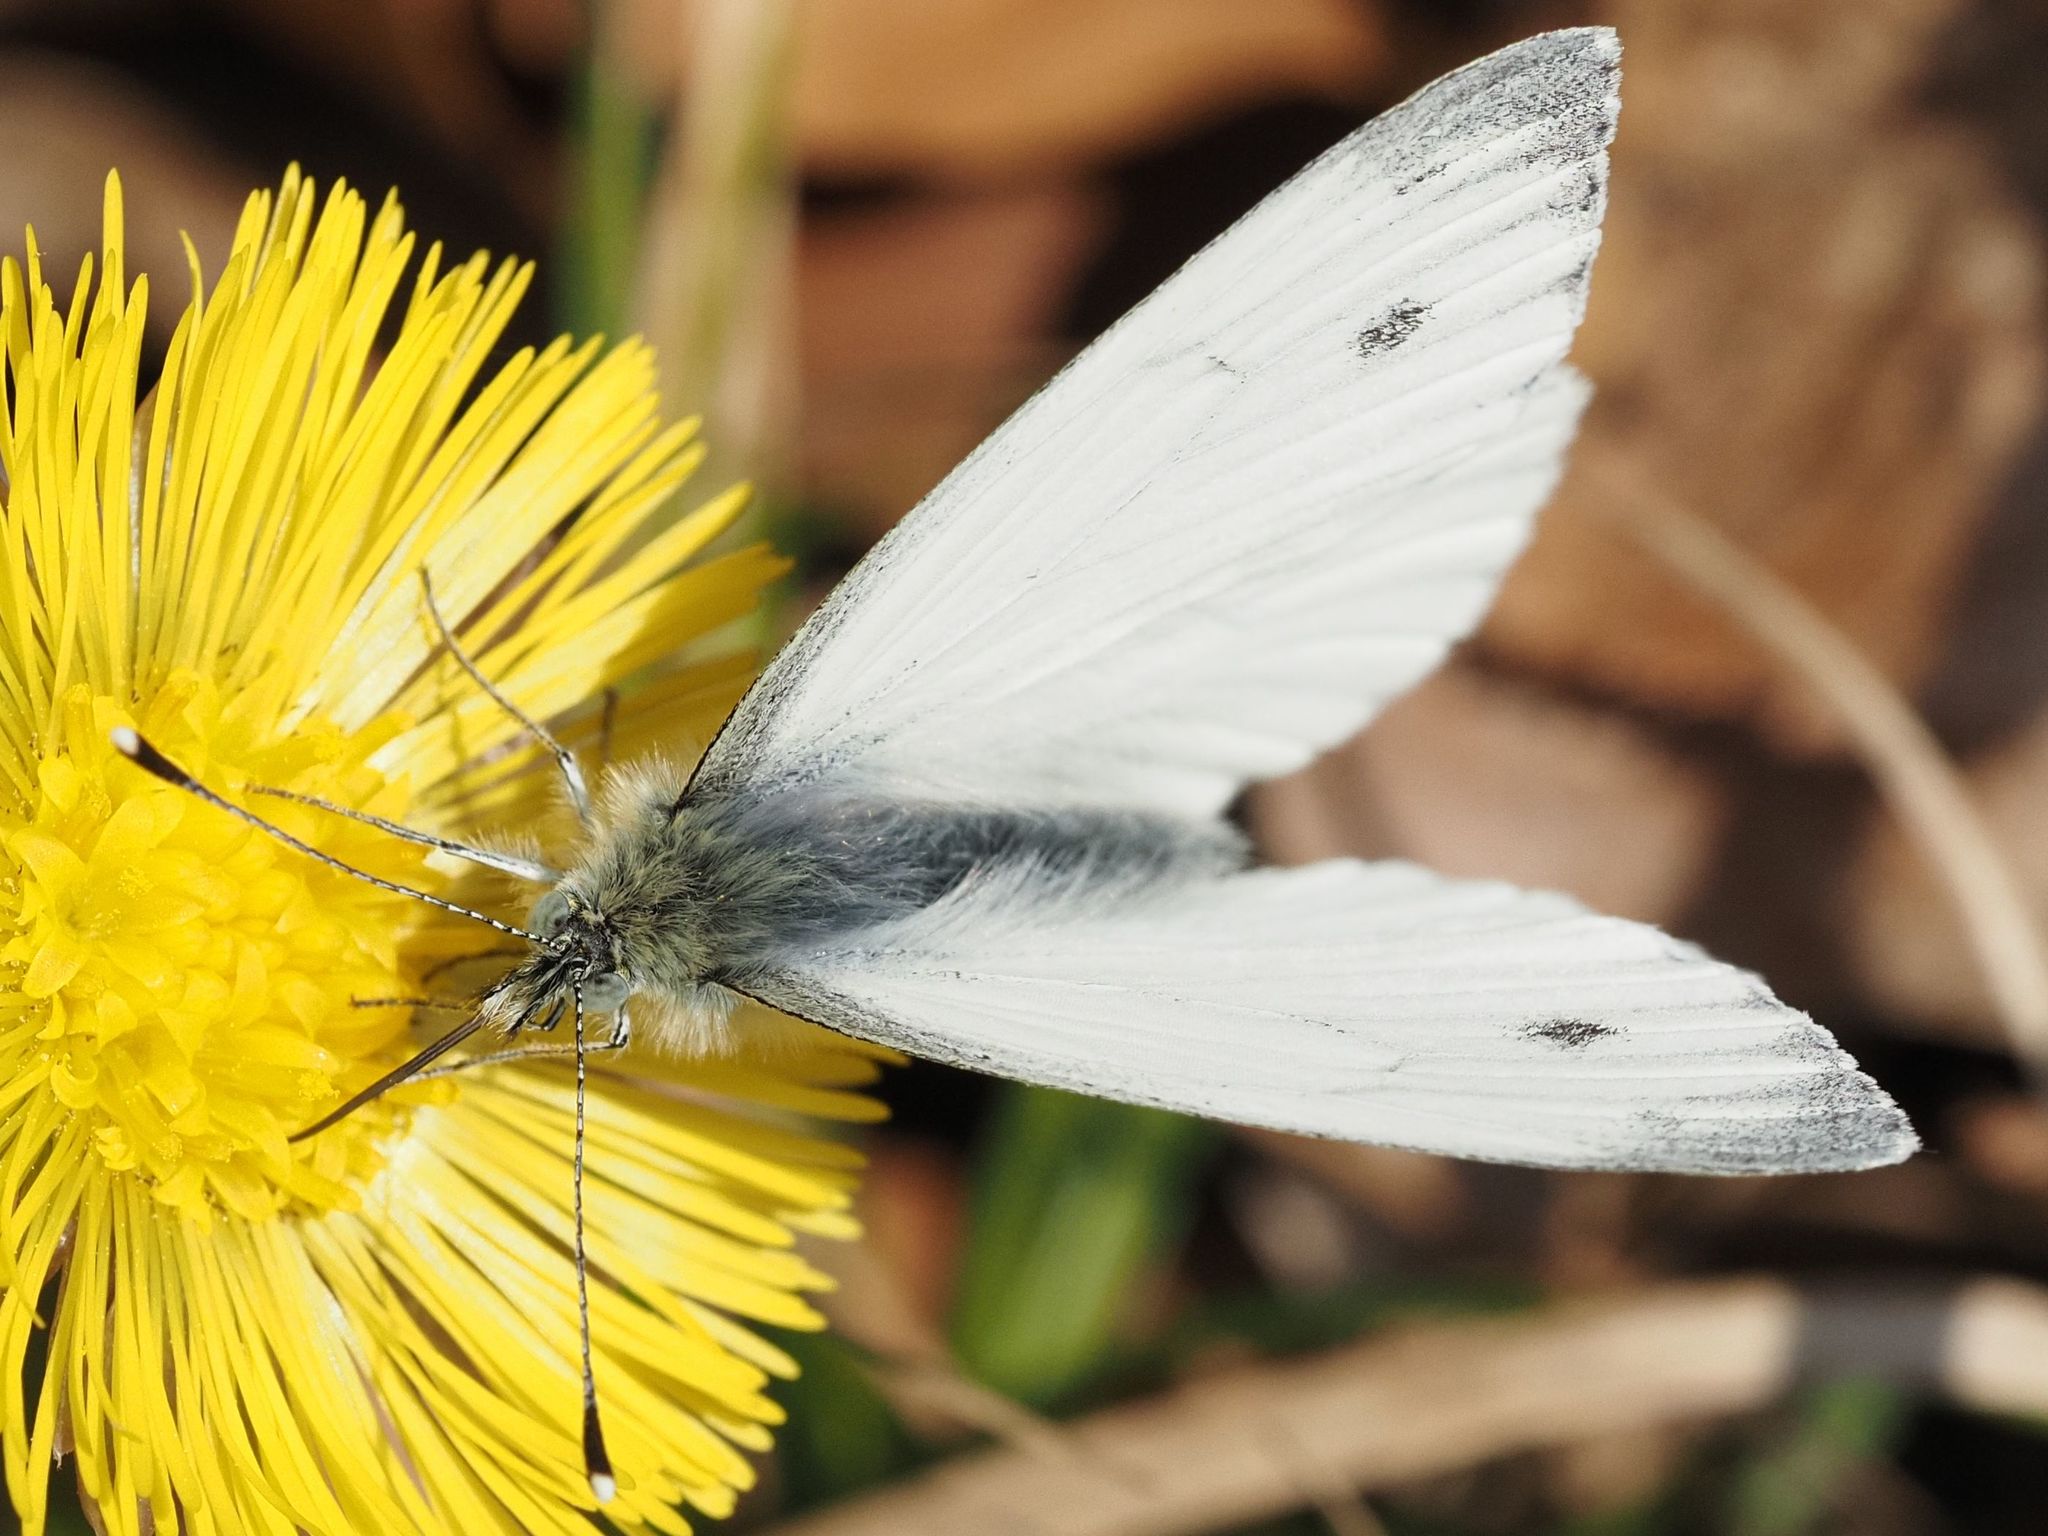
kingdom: Animalia
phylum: Arthropoda
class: Insecta
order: Lepidoptera
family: Pieridae
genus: Pieris
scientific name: Pieris napi
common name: Green-veined white
